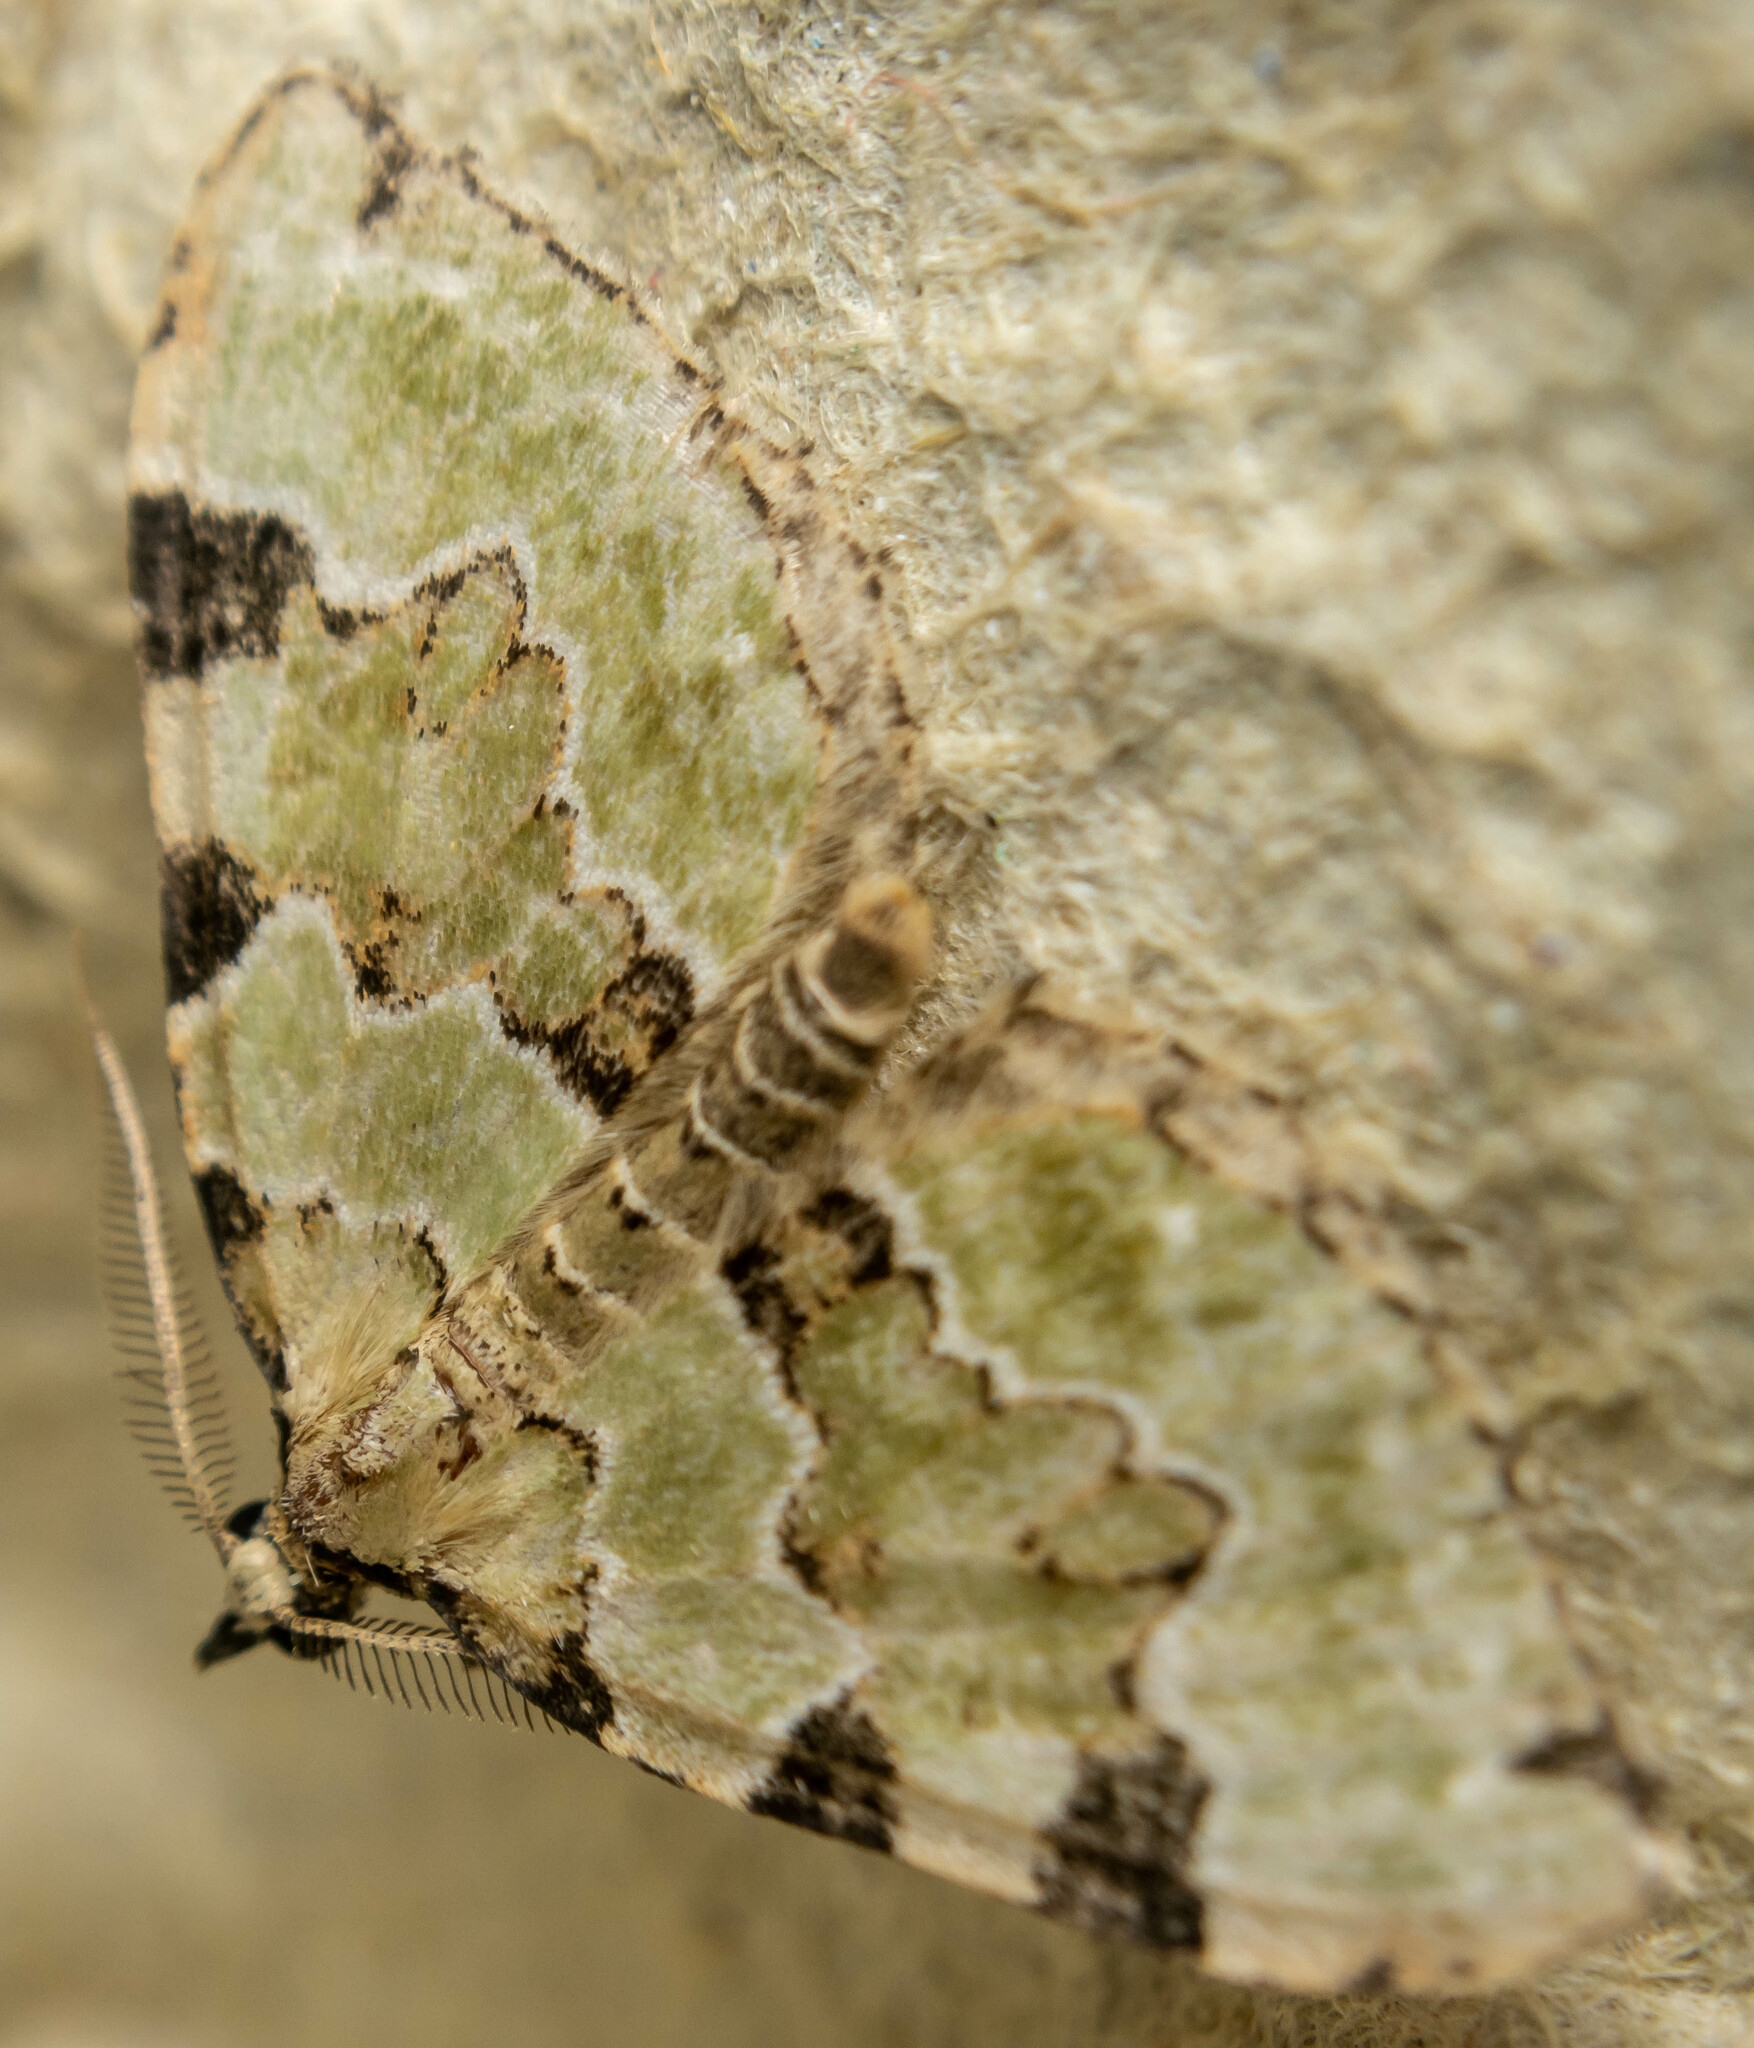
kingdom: Animalia
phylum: Arthropoda
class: Insecta
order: Lepidoptera
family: Geometridae
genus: Colostygia
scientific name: Colostygia pectinataria
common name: Green carpet
